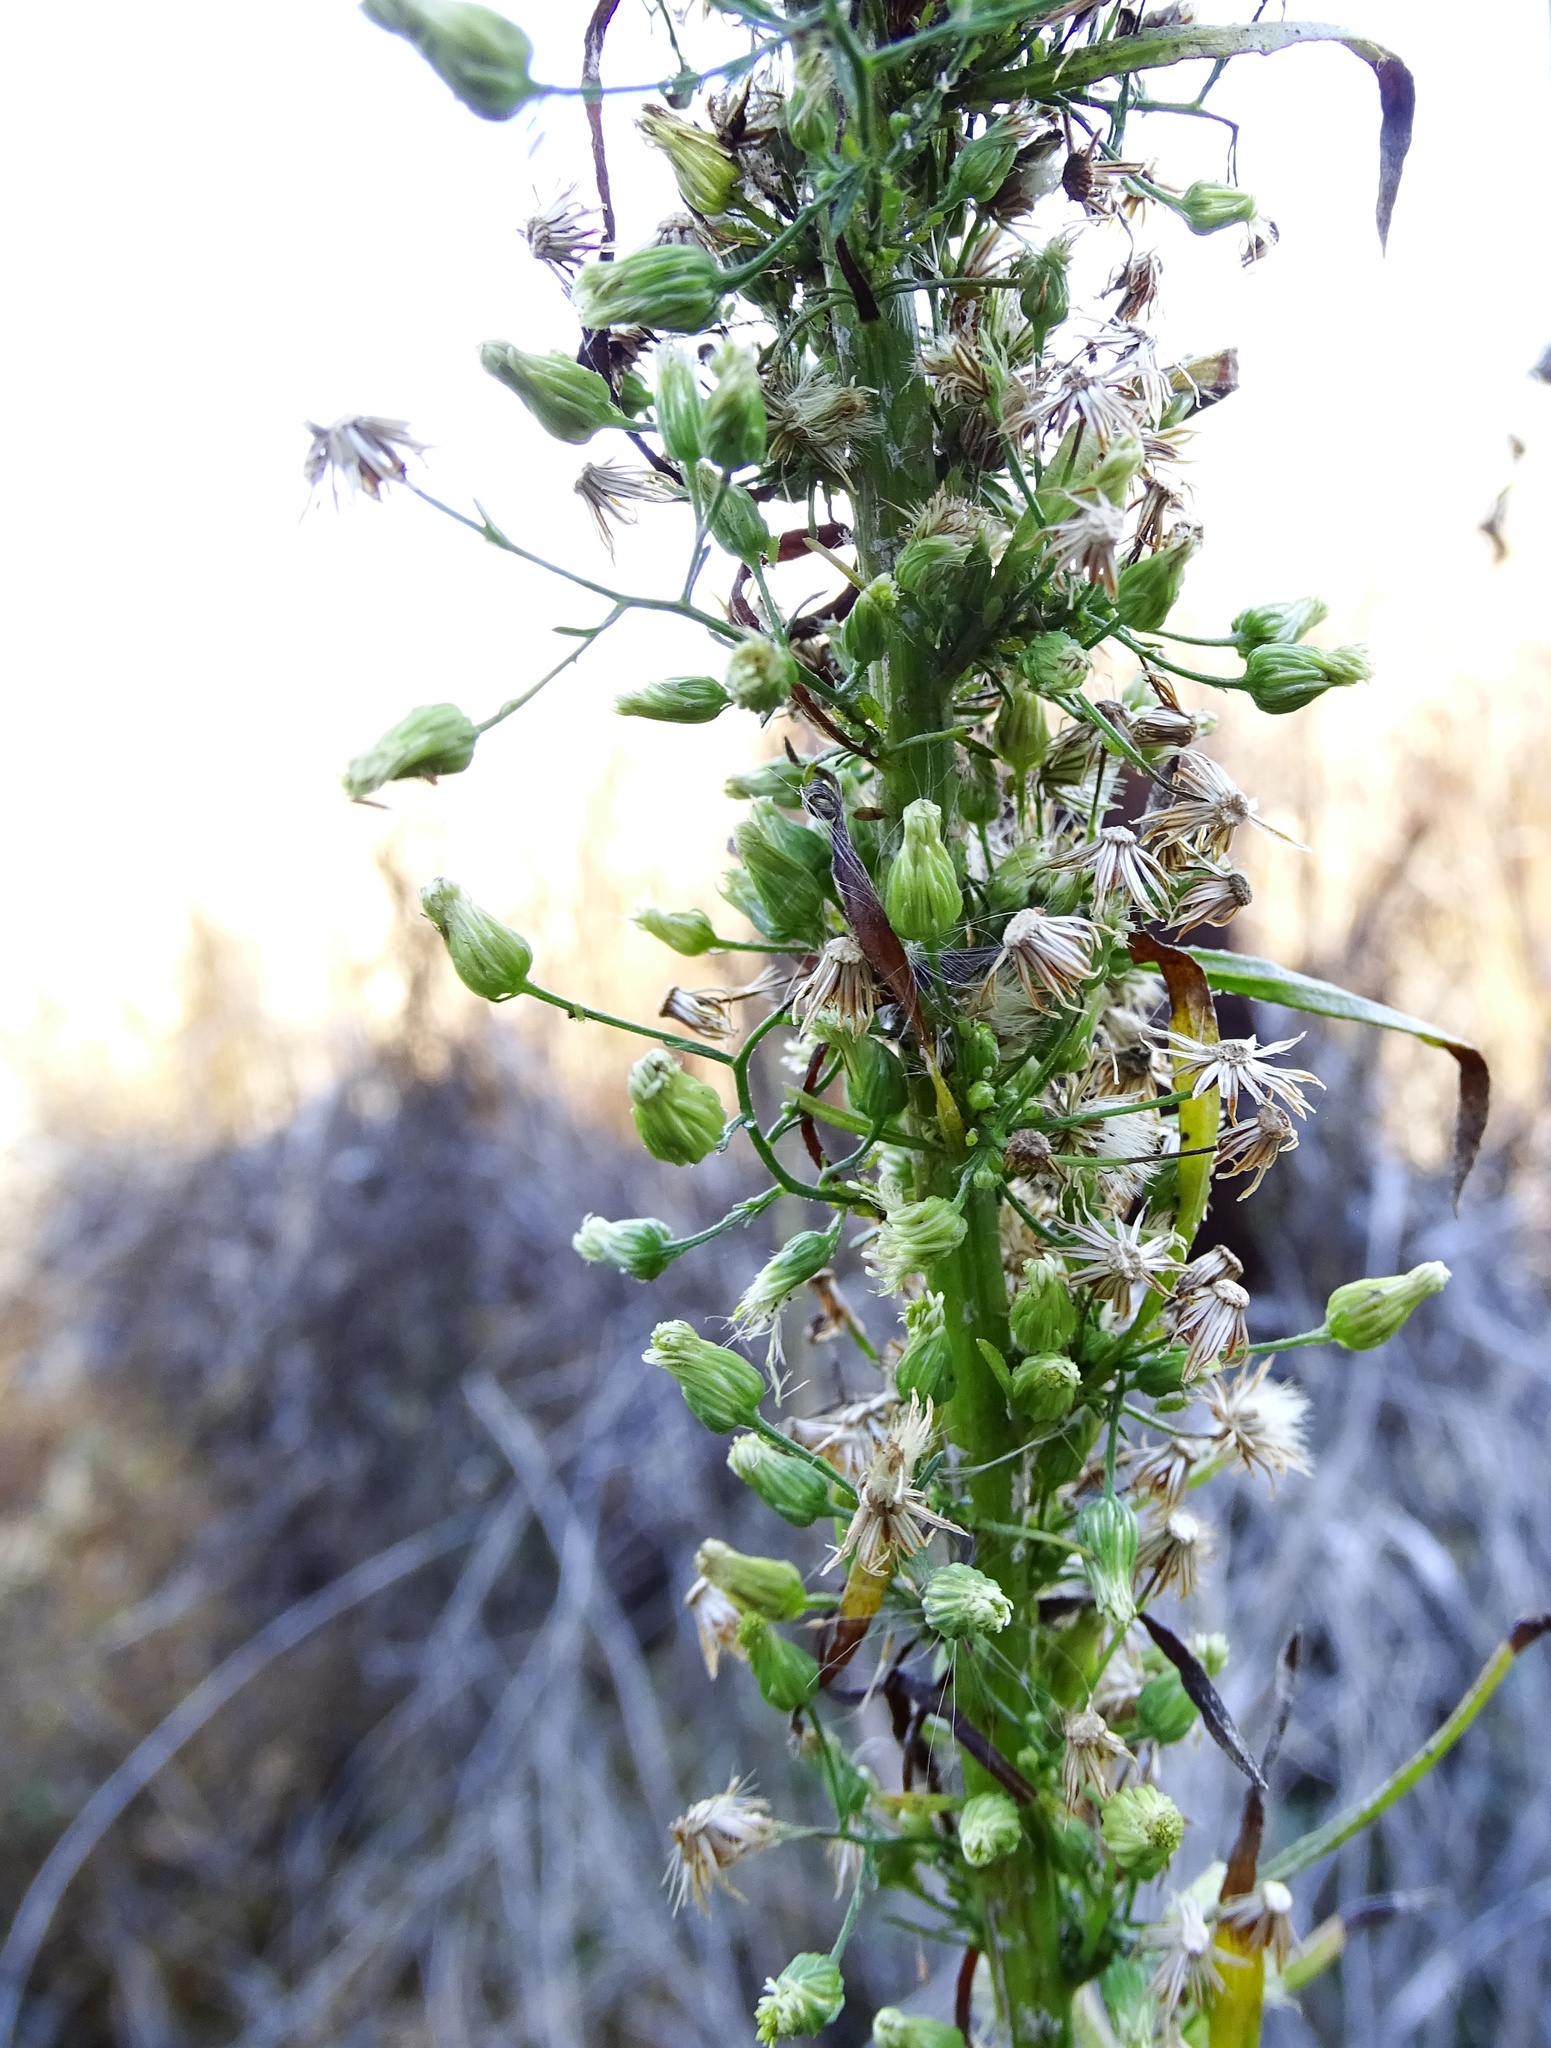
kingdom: Plantae
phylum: Tracheophyta
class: Magnoliopsida
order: Asterales
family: Asteraceae
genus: Erigeron
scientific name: Erigeron canadensis
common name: Canadian fleabane
